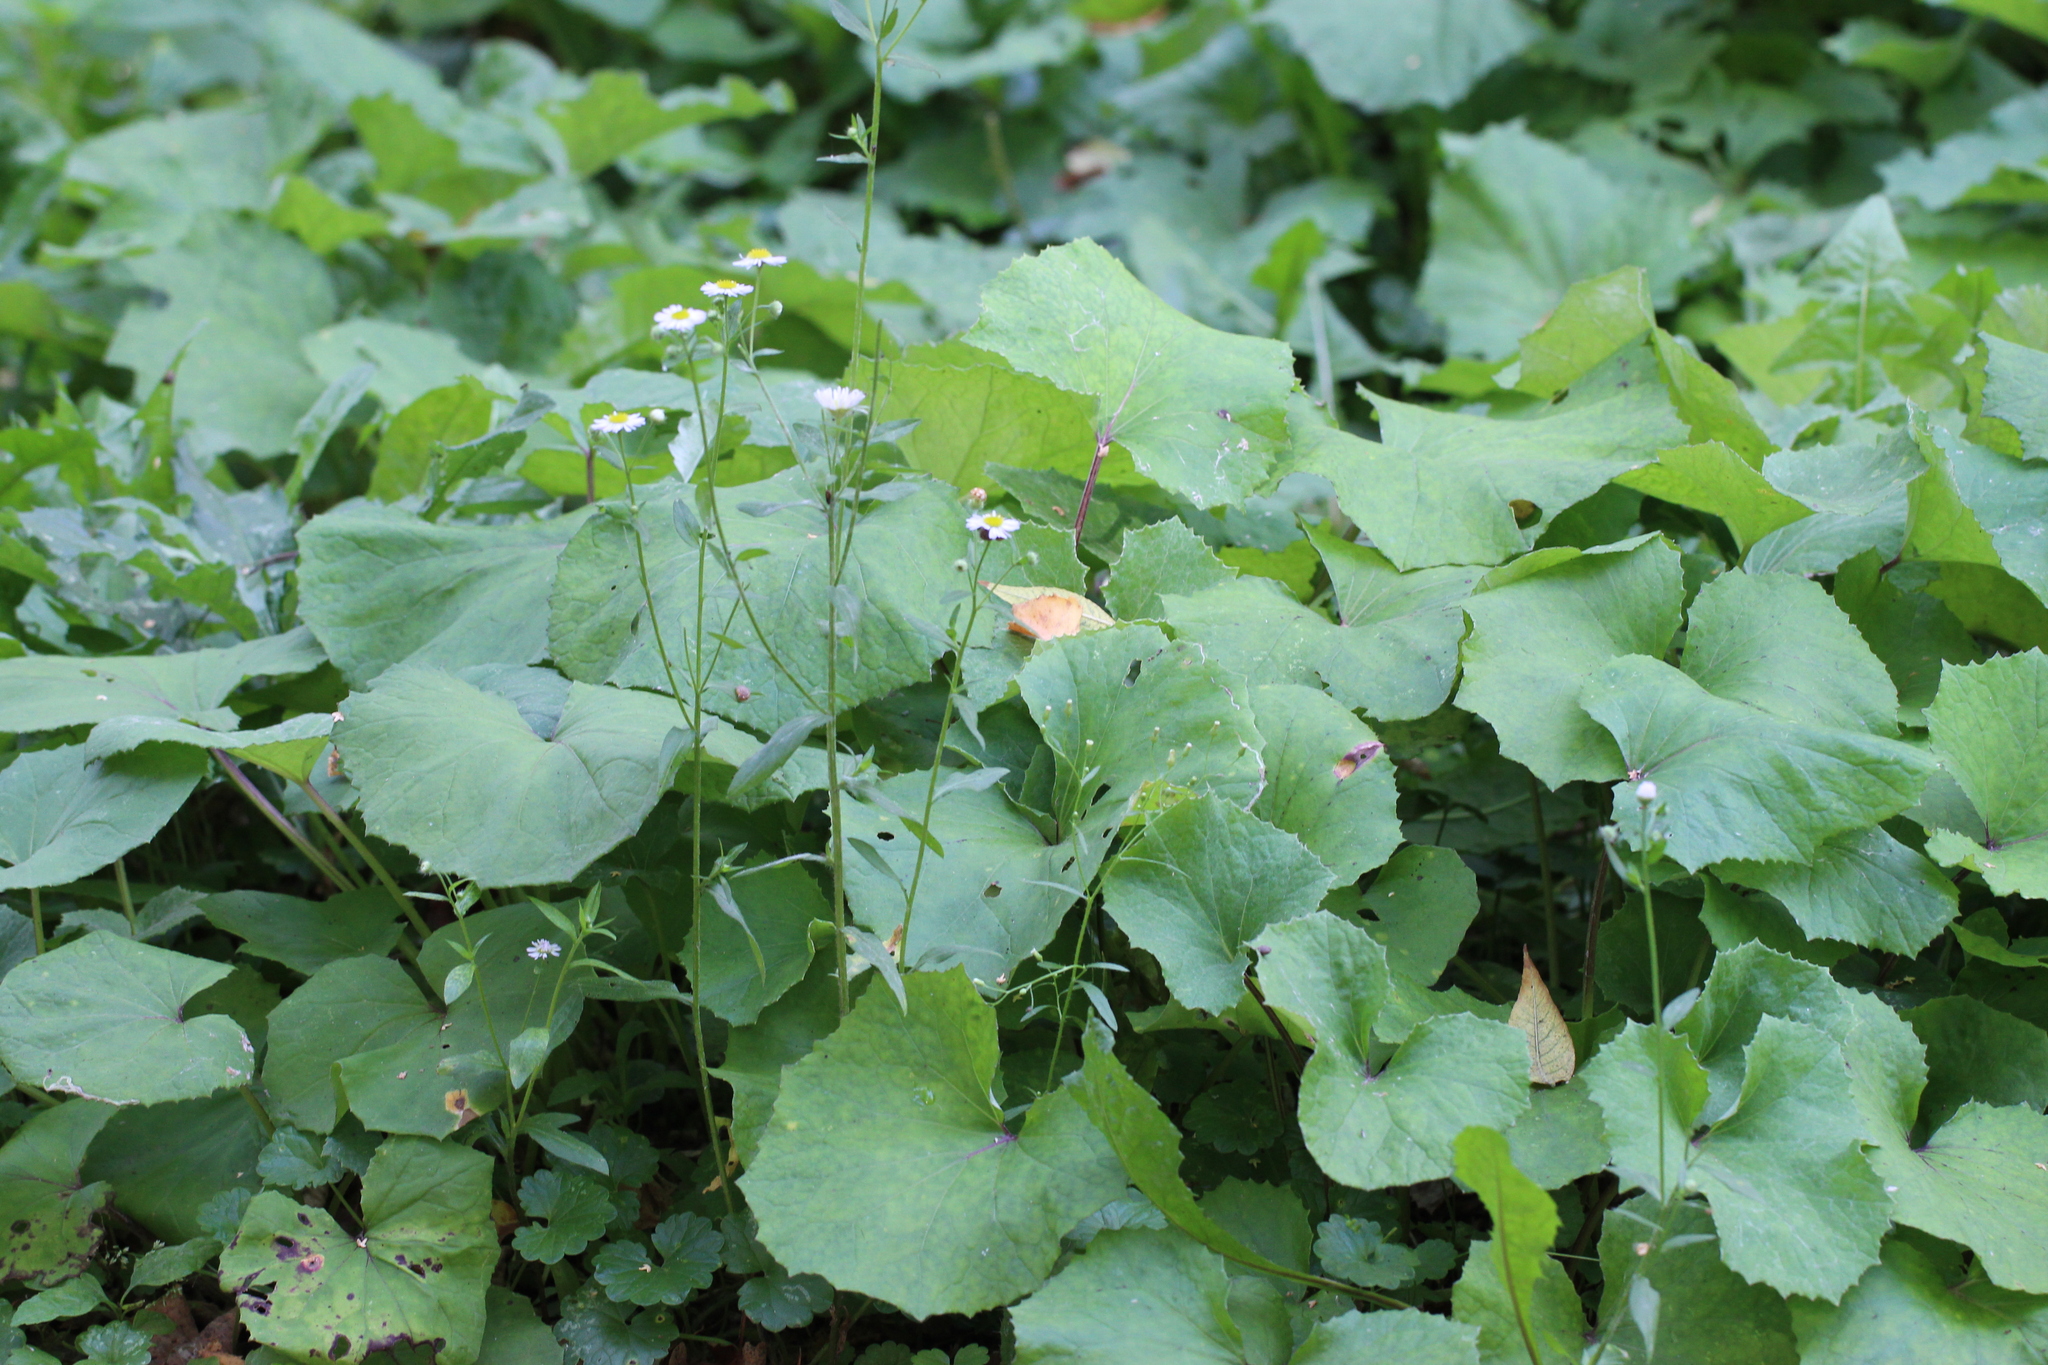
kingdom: Plantae
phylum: Tracheophyta
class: Magnoliopsida
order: Asterales
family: Asteraceae
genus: Tussilago
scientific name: Tussilago farfara
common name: Coltsfoot
